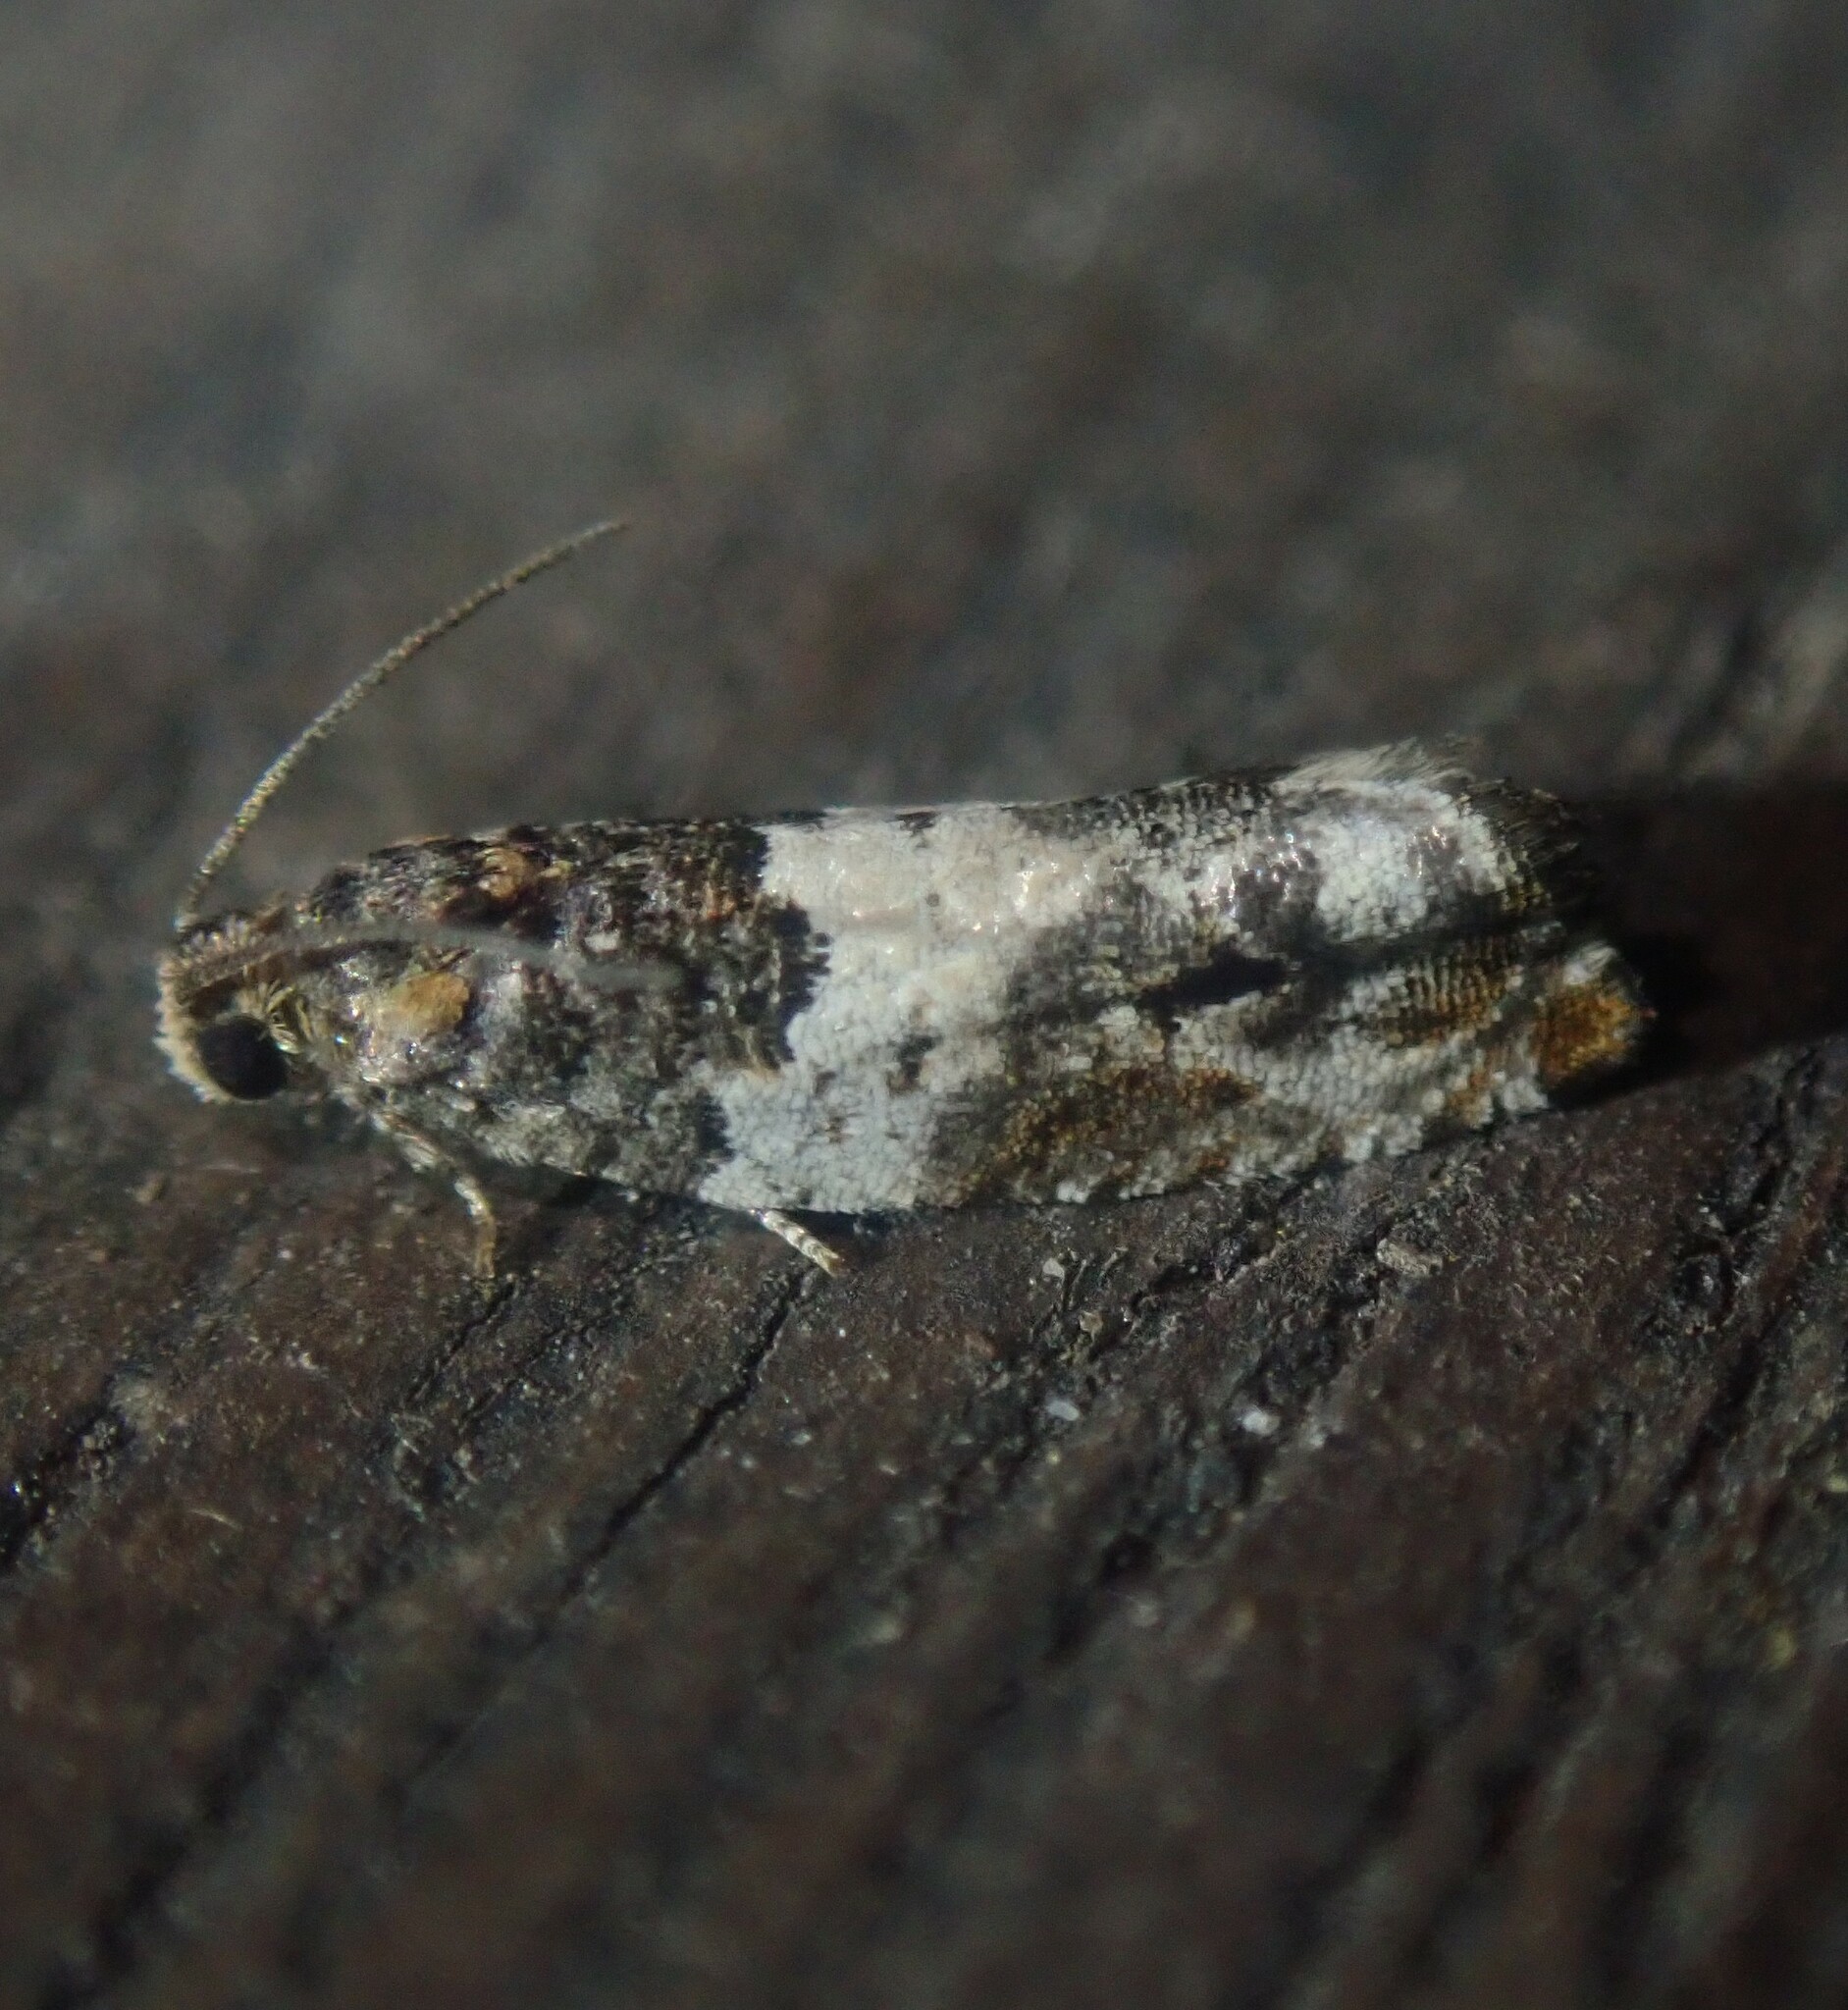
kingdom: Animalia
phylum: Arthropoda
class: Insecta
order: Lepidoptera
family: Tortricidae
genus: Gypsonoma
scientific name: Gypsonoma dealbana
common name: Common cloaked shoot
